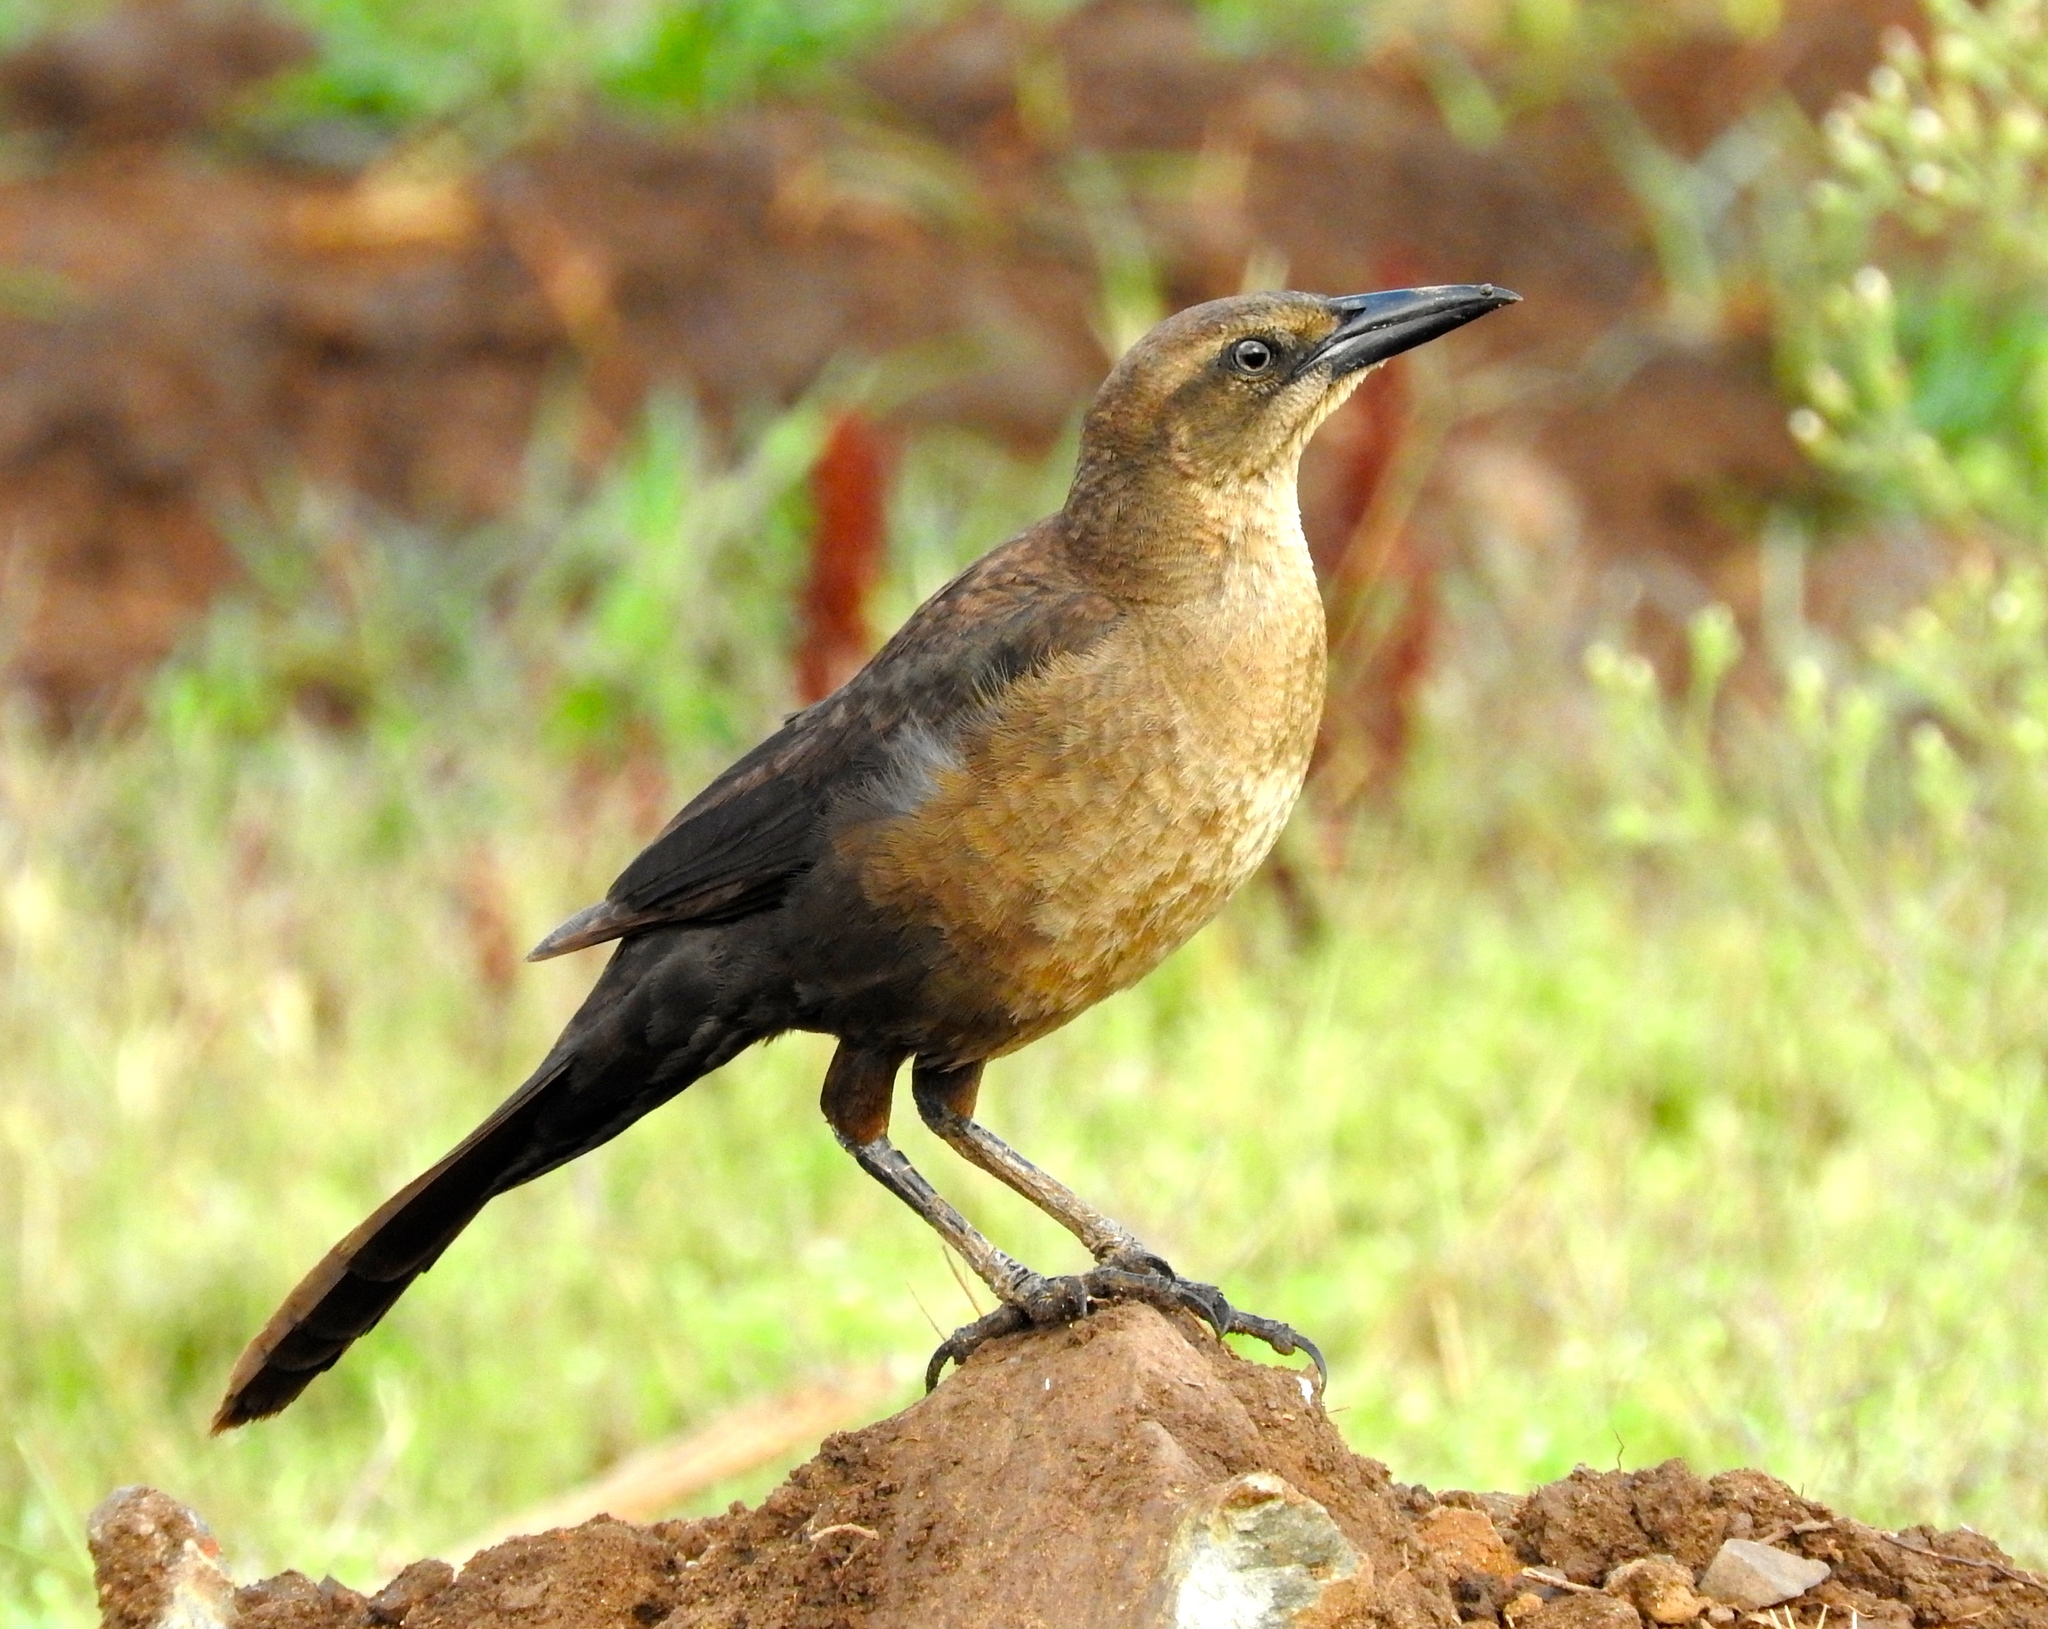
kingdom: Animalia
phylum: Chordata
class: Aves
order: Passeriformes
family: Icteridae
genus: Quiscalus
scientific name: Quiscalus mexicanus
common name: Great-tailed grackle
